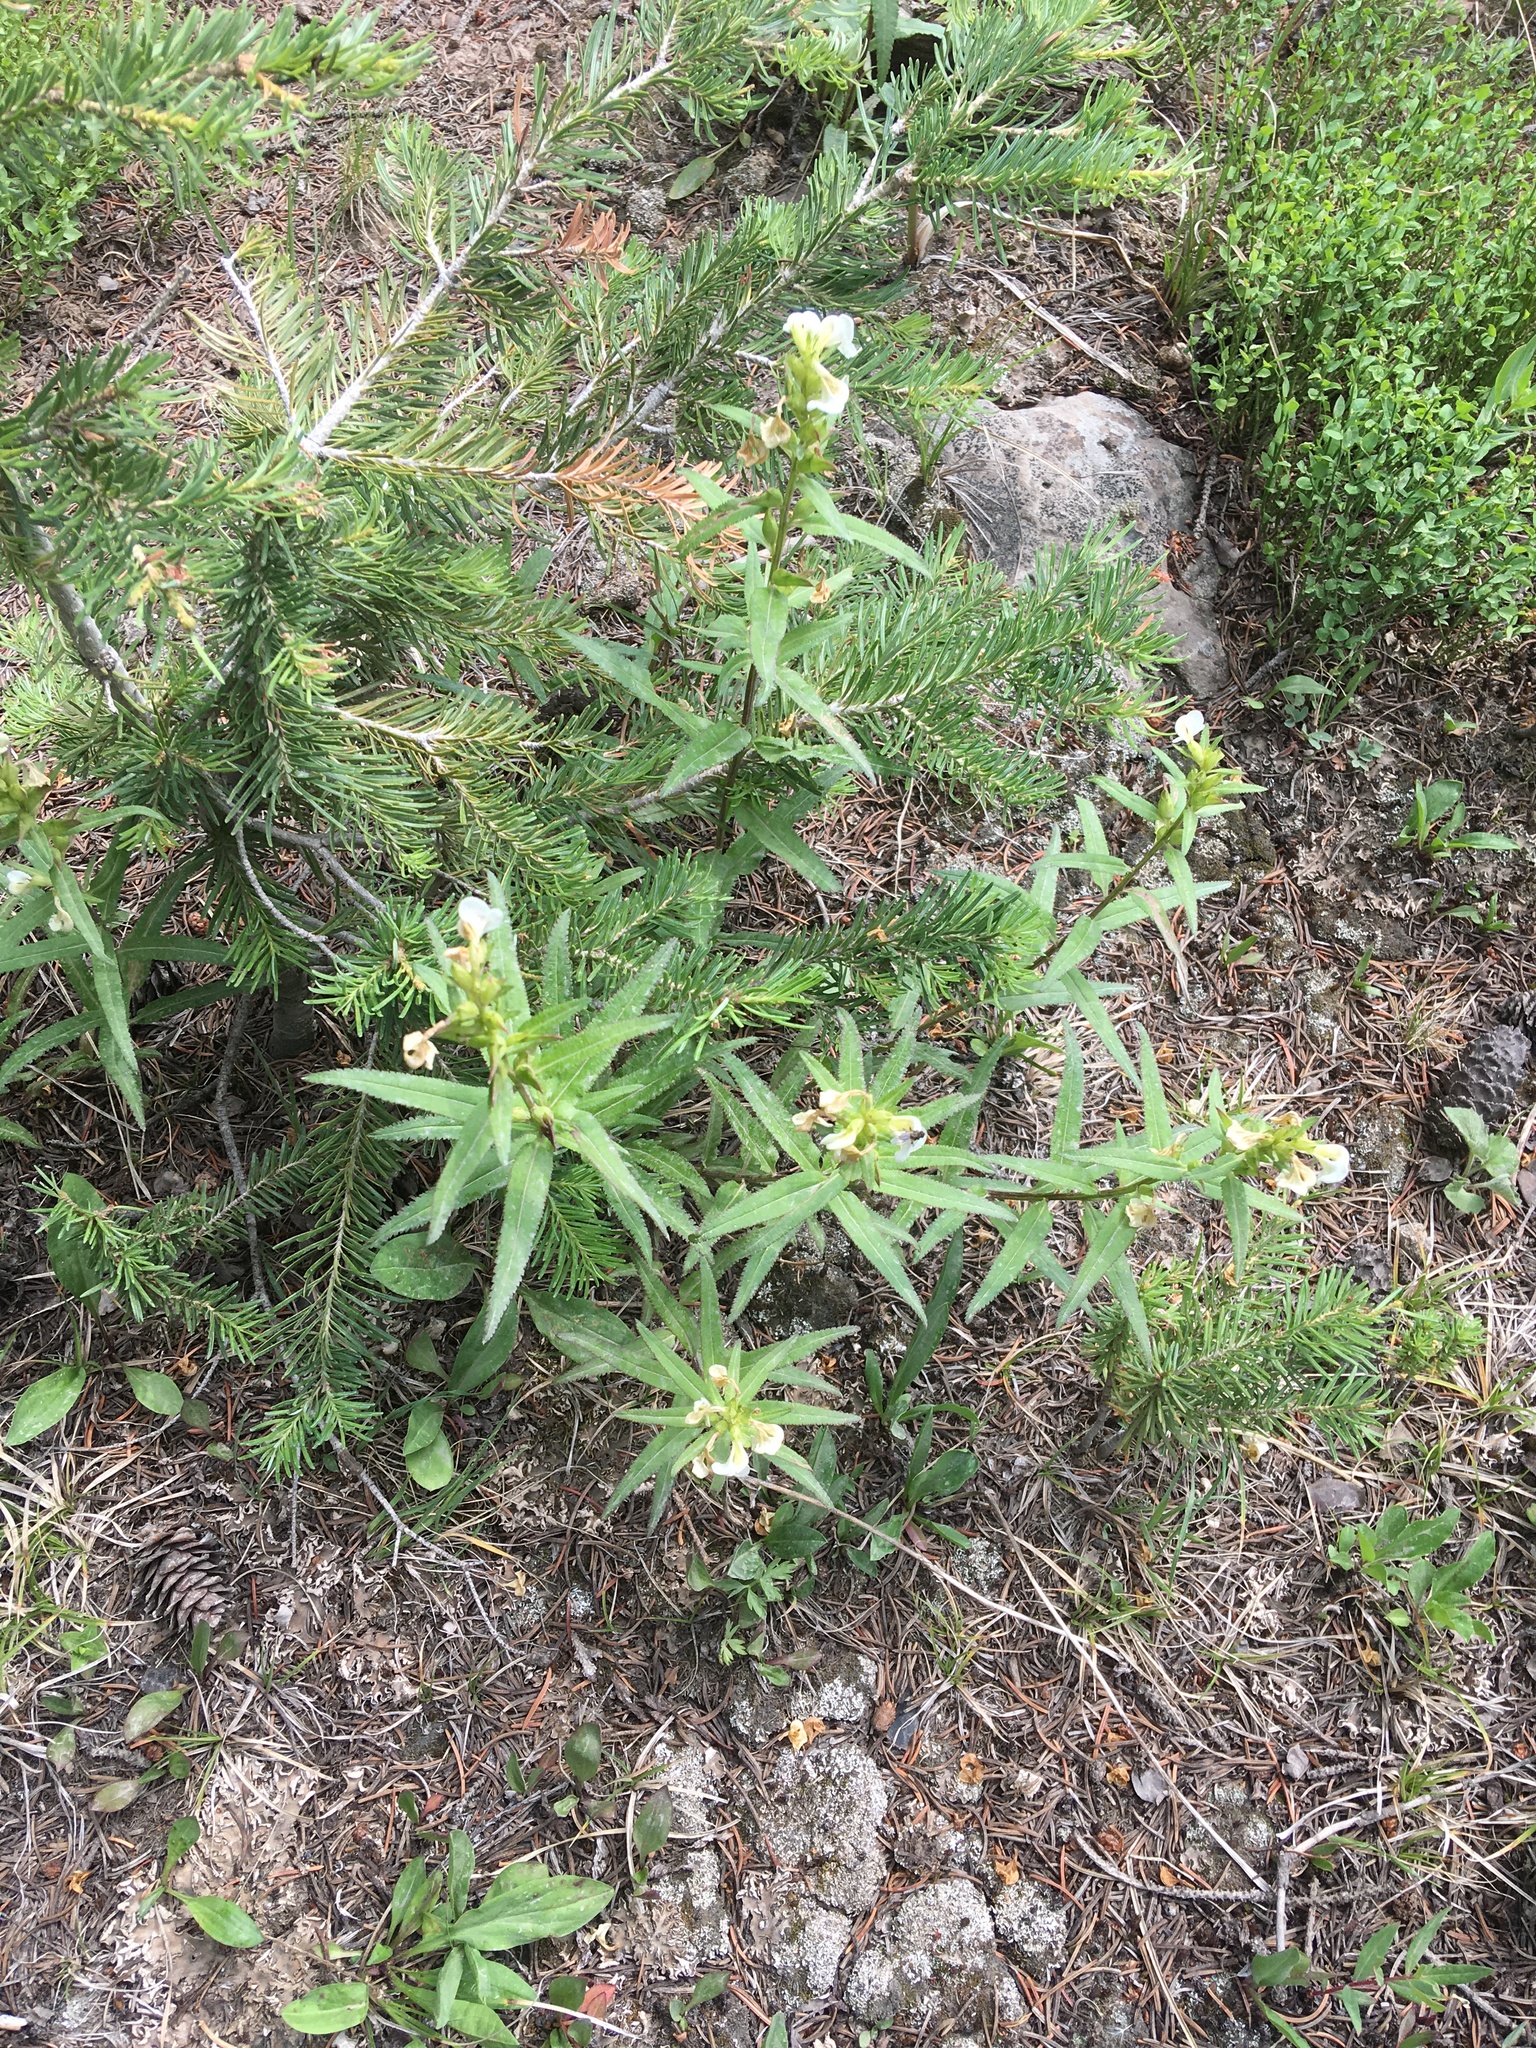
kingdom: Plantae
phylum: Tracheophyta
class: Magnoliopsida
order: Lamiales
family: Orobanchaceae
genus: Pedicularis
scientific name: Pedicularis racemosa
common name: Leafy lousewort
